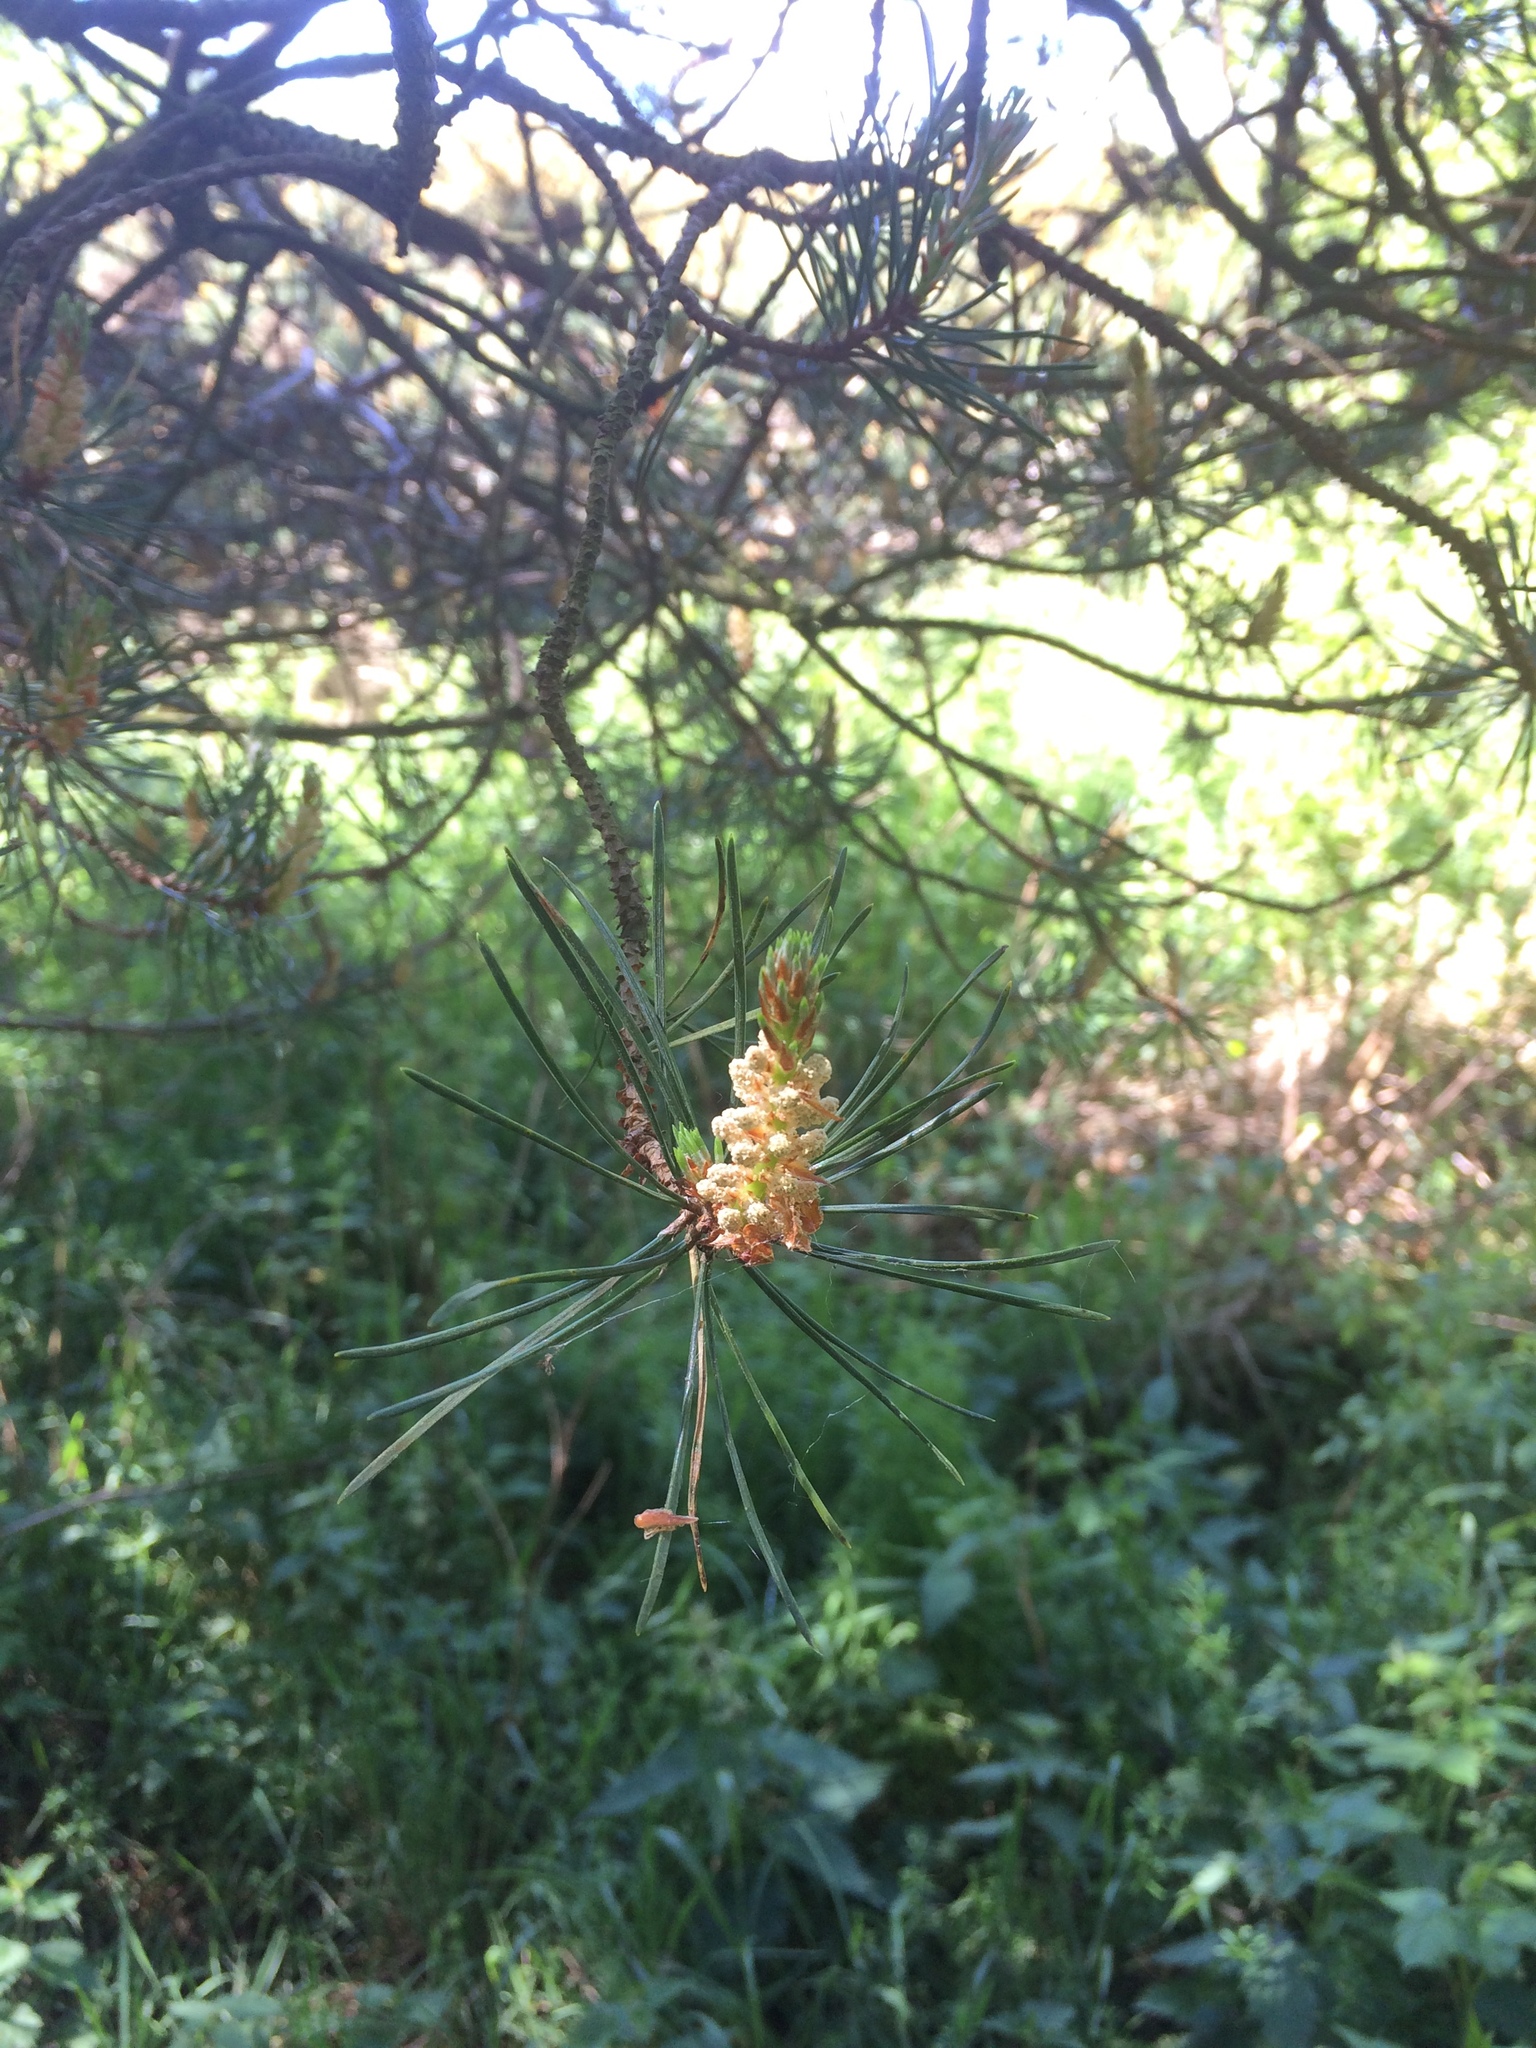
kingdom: Plantae
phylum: Tracheophyta
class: Pinopsida
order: Pinales
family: Pinaceae
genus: Pinus
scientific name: Pinus sylvestris
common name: Scots pine
